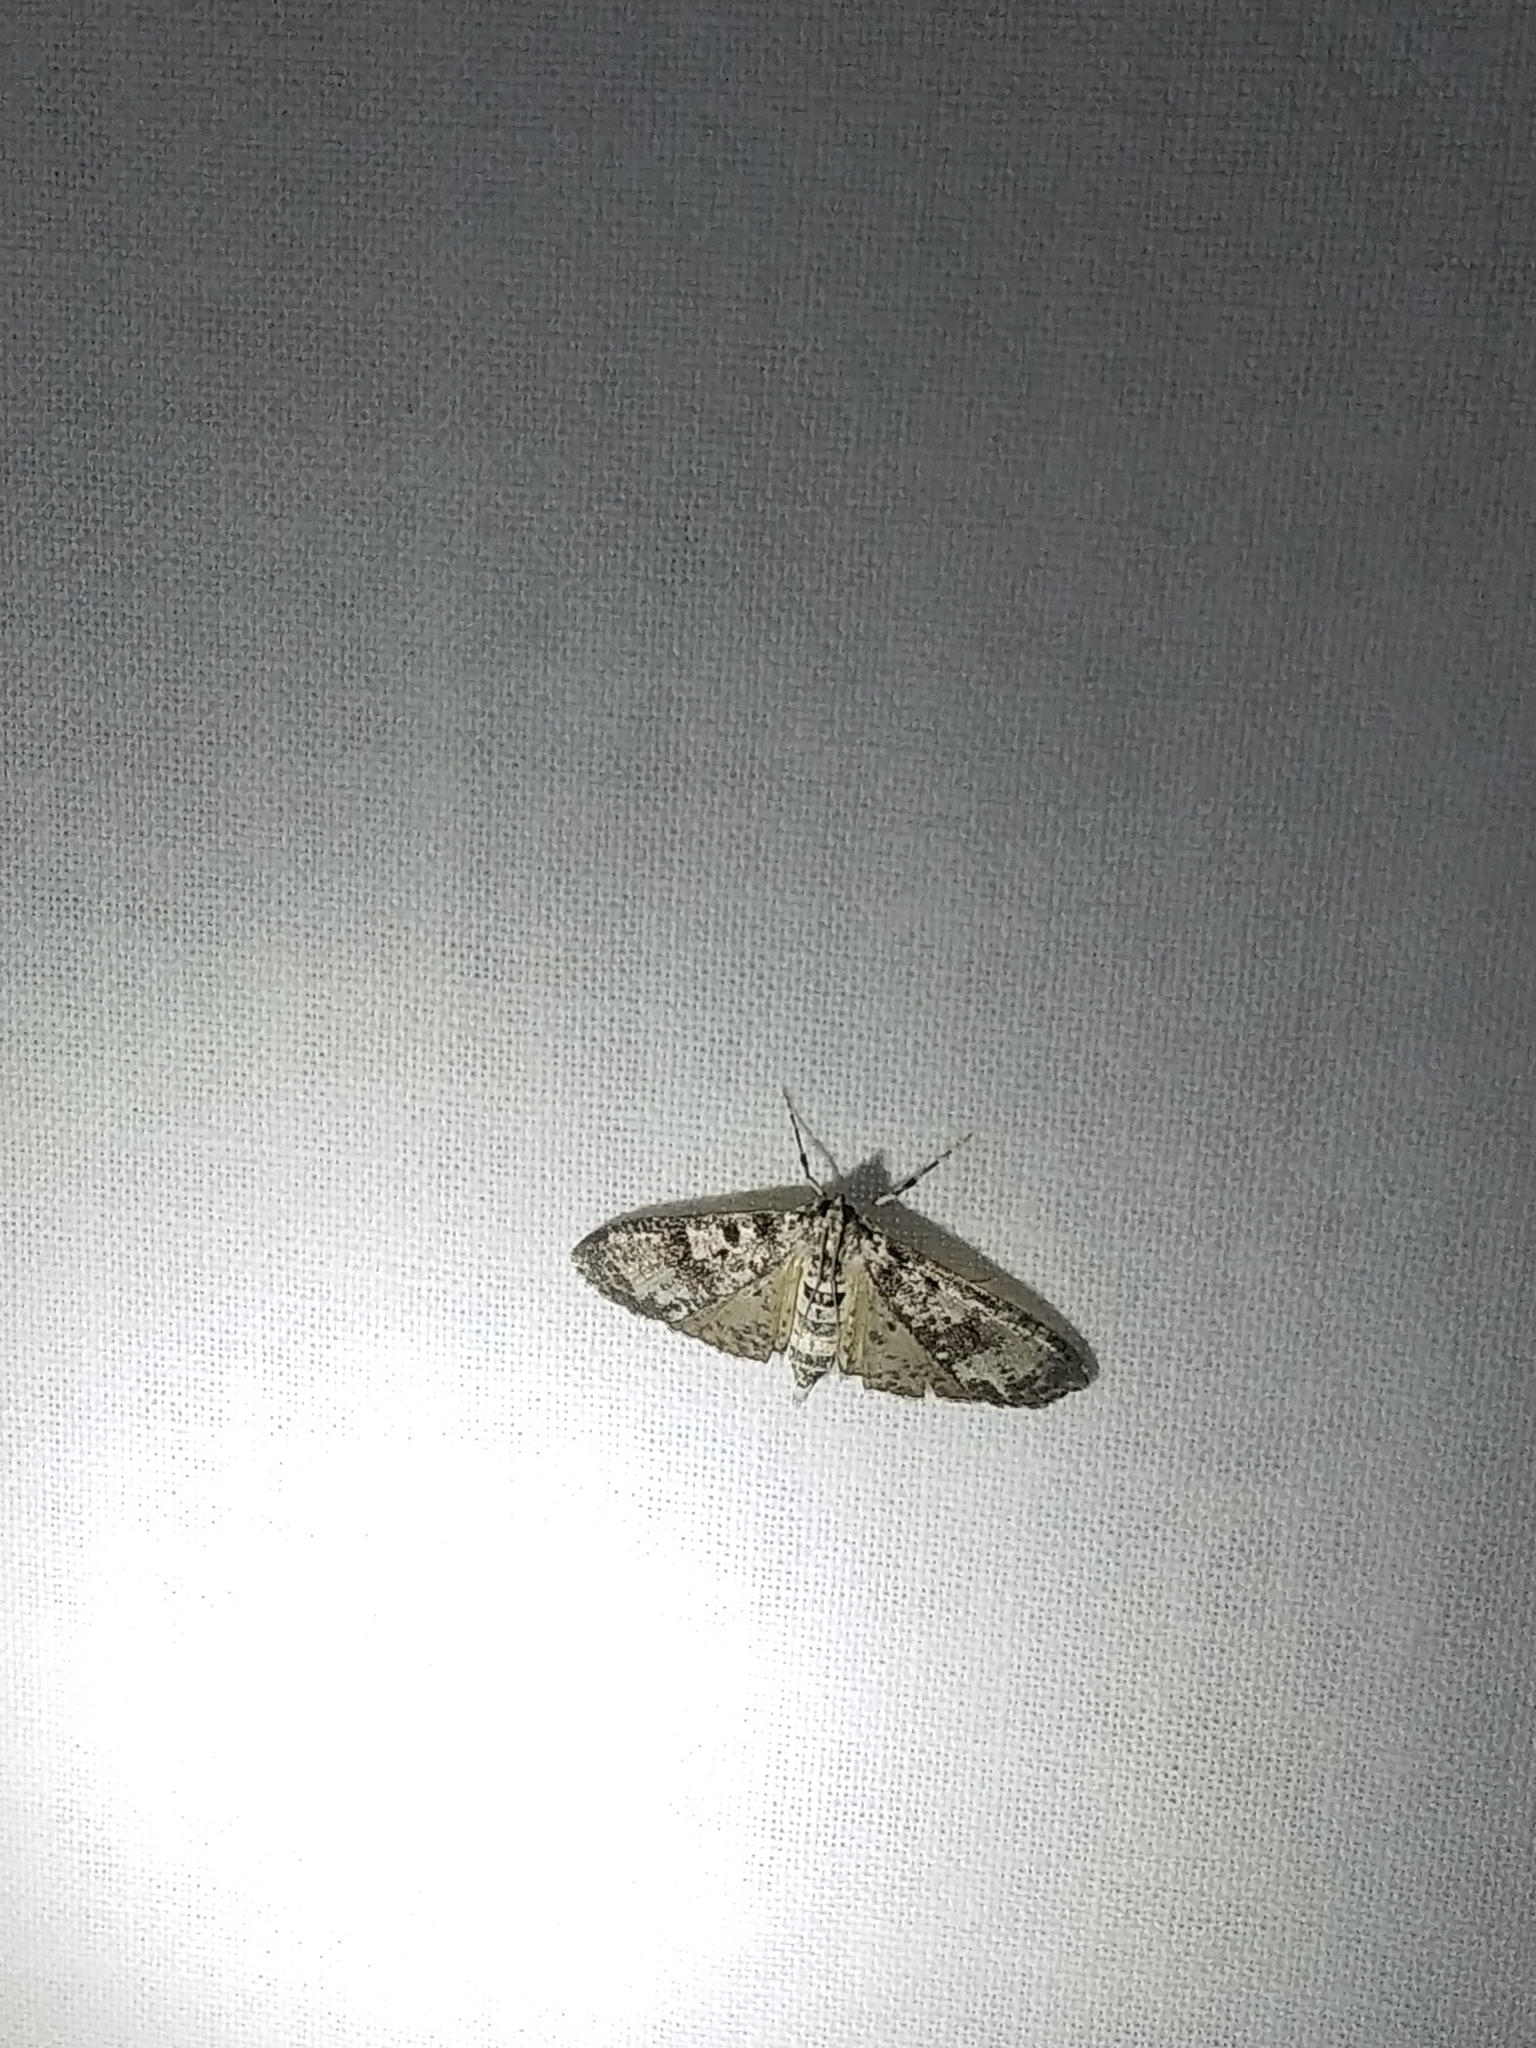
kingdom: Animalia
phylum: Arthropoda
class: Insecta
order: Lepidoptera
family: Crambidae
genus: Palpita
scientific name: Palpita magniferalis
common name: Splendid palpita moth
